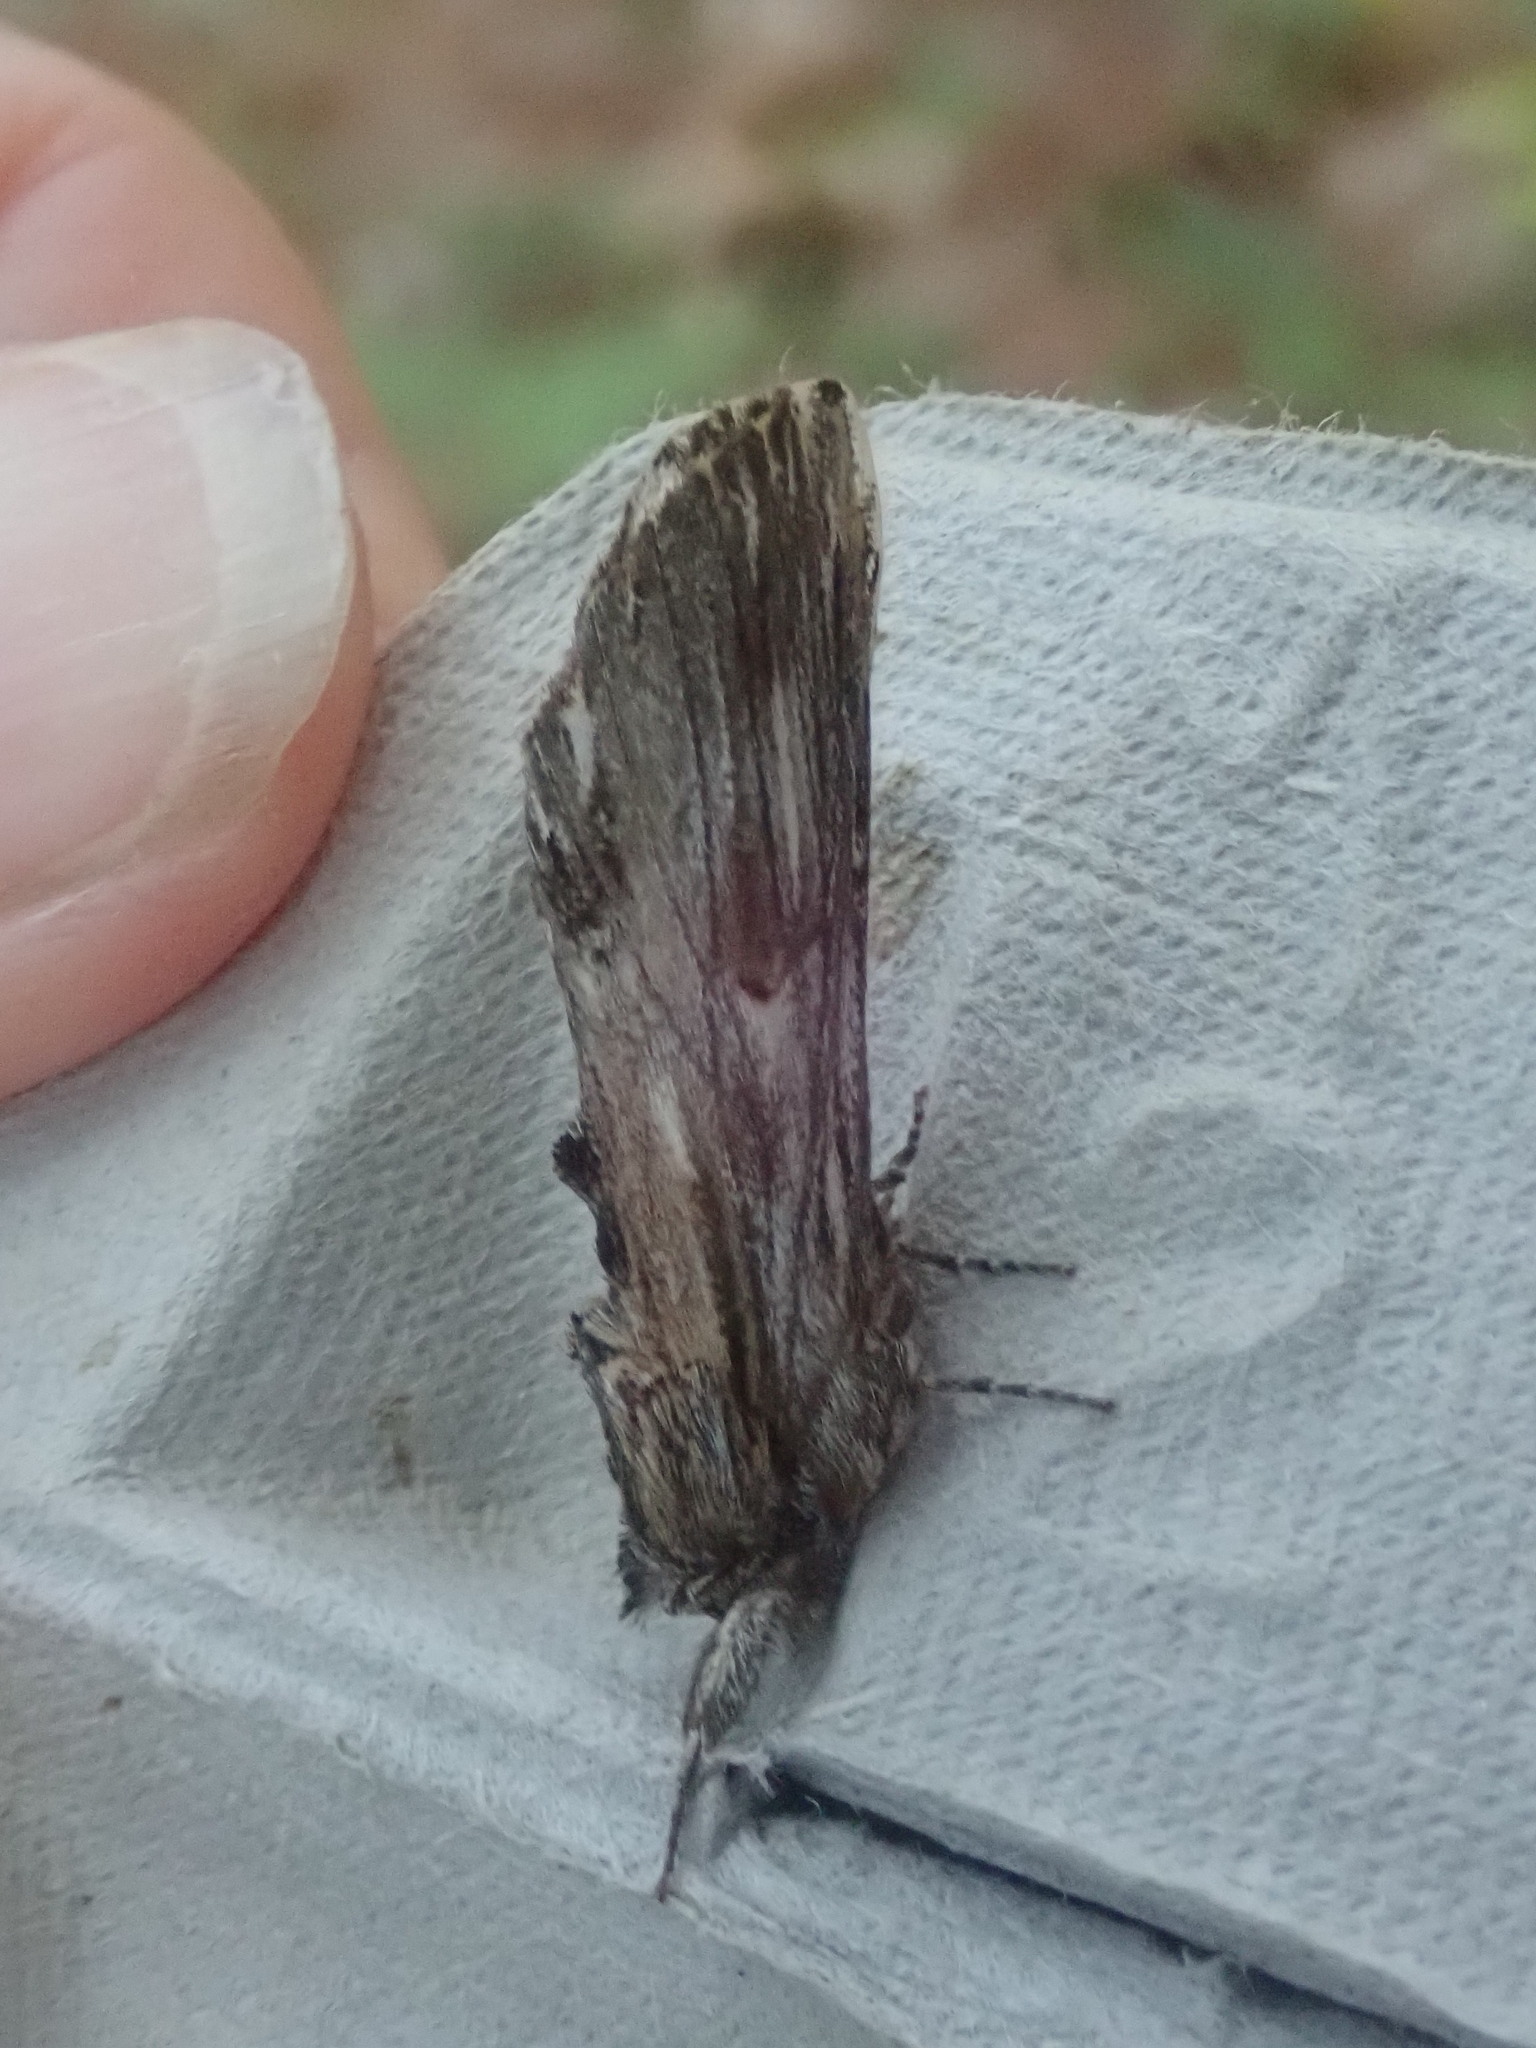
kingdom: Animalia
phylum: Arthropoda
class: Insecta
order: Lepidoptera
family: Notodontidae
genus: Oligocentria
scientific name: Oligocentria Ianassa lignicolor
